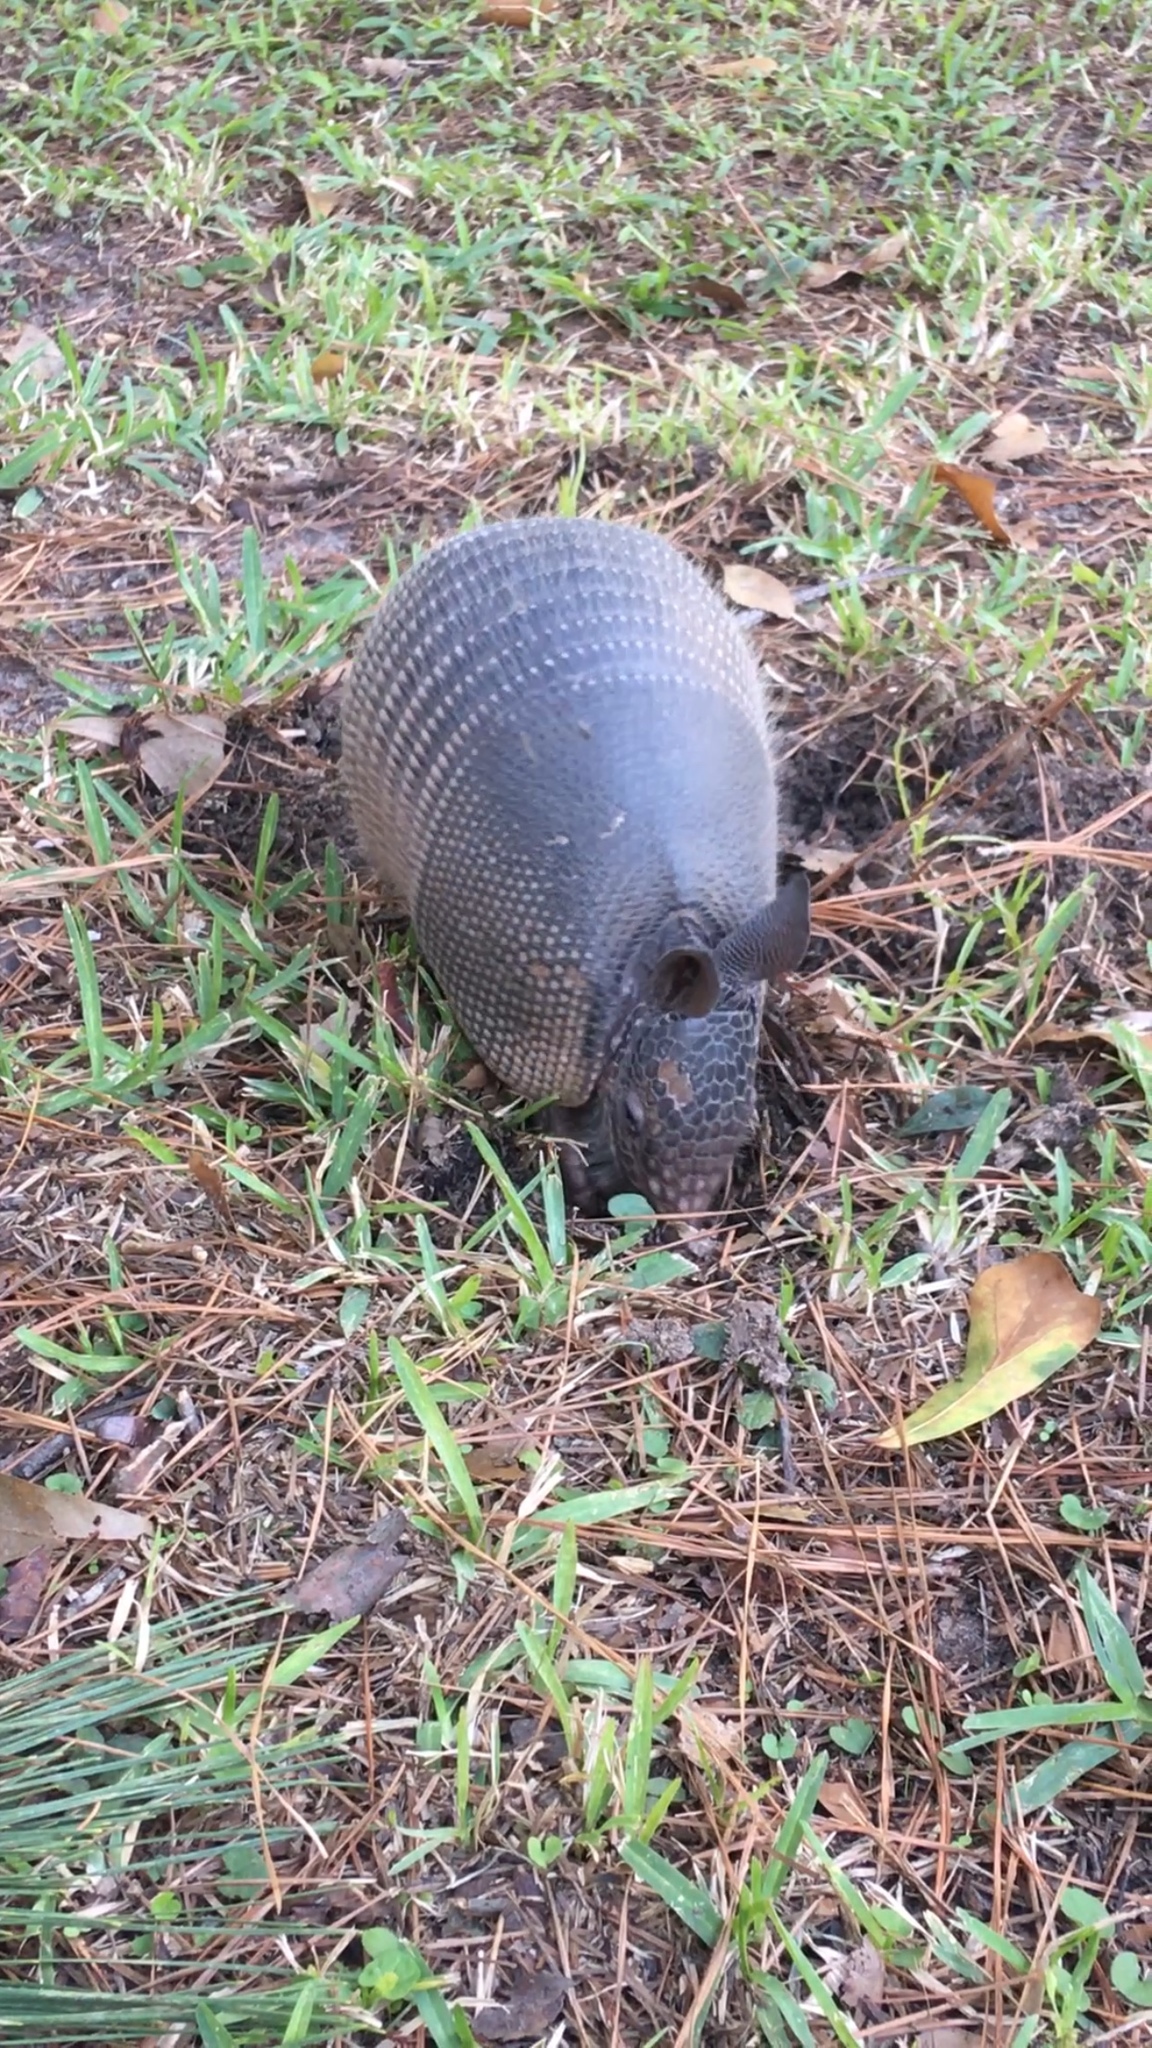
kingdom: Animalia
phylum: Chordata
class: Mammalia
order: Cingulata
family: Dasypodidae
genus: Dasypus
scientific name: Dasypus novemcinctus
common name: Nine-banded armadillo
